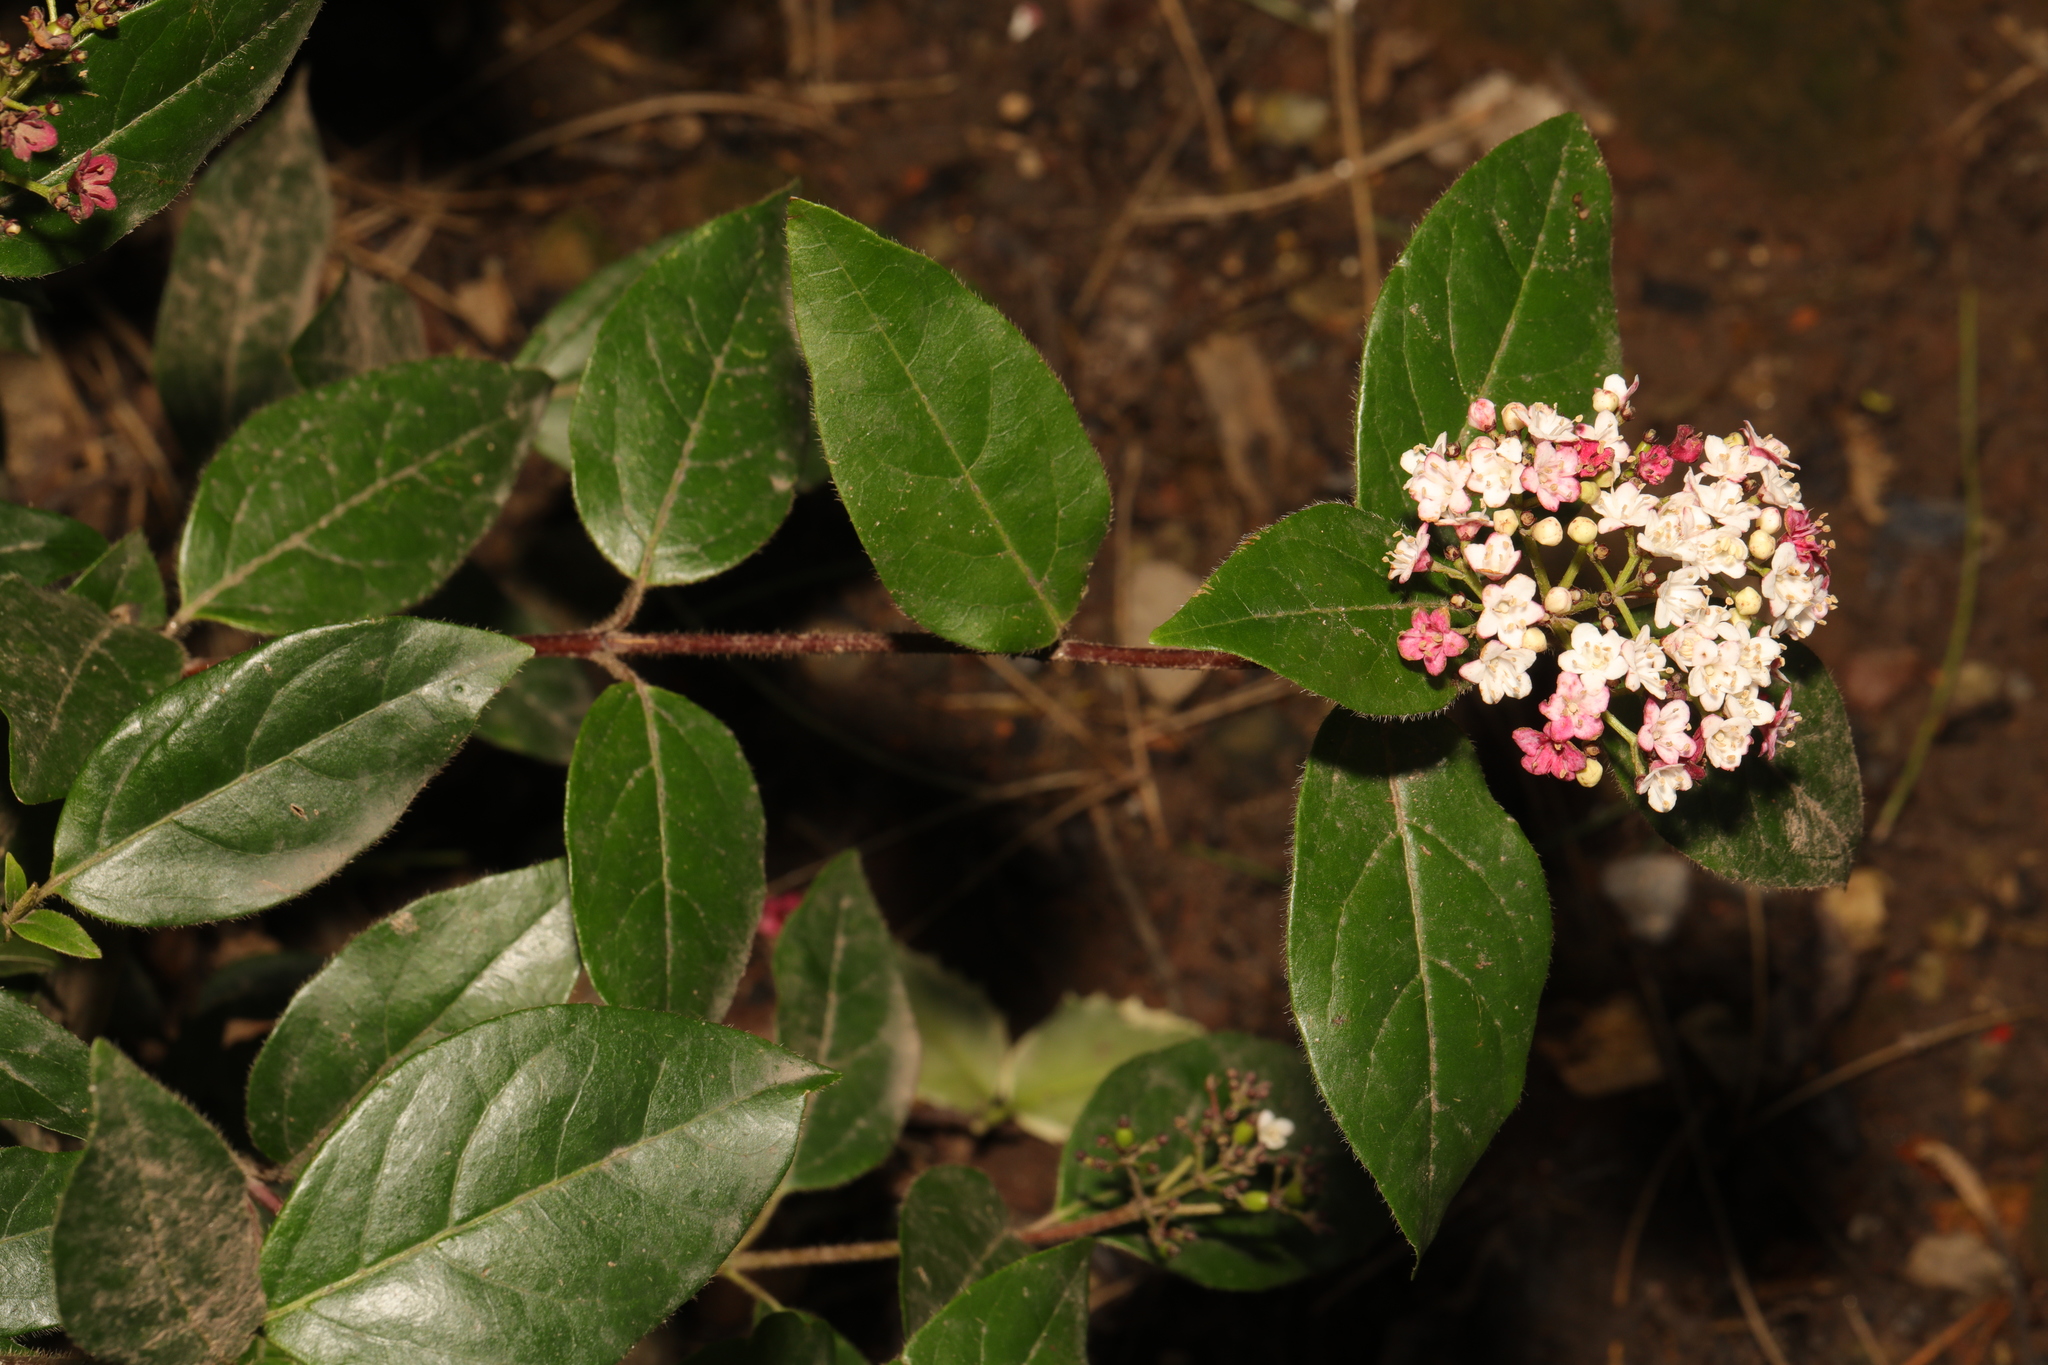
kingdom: Plantae
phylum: Tracheophyta
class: Magnoliopsida
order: Dipsacales
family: Viburnaceae
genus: Viburnum
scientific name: Viburnum tinus
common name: Laurustinus
